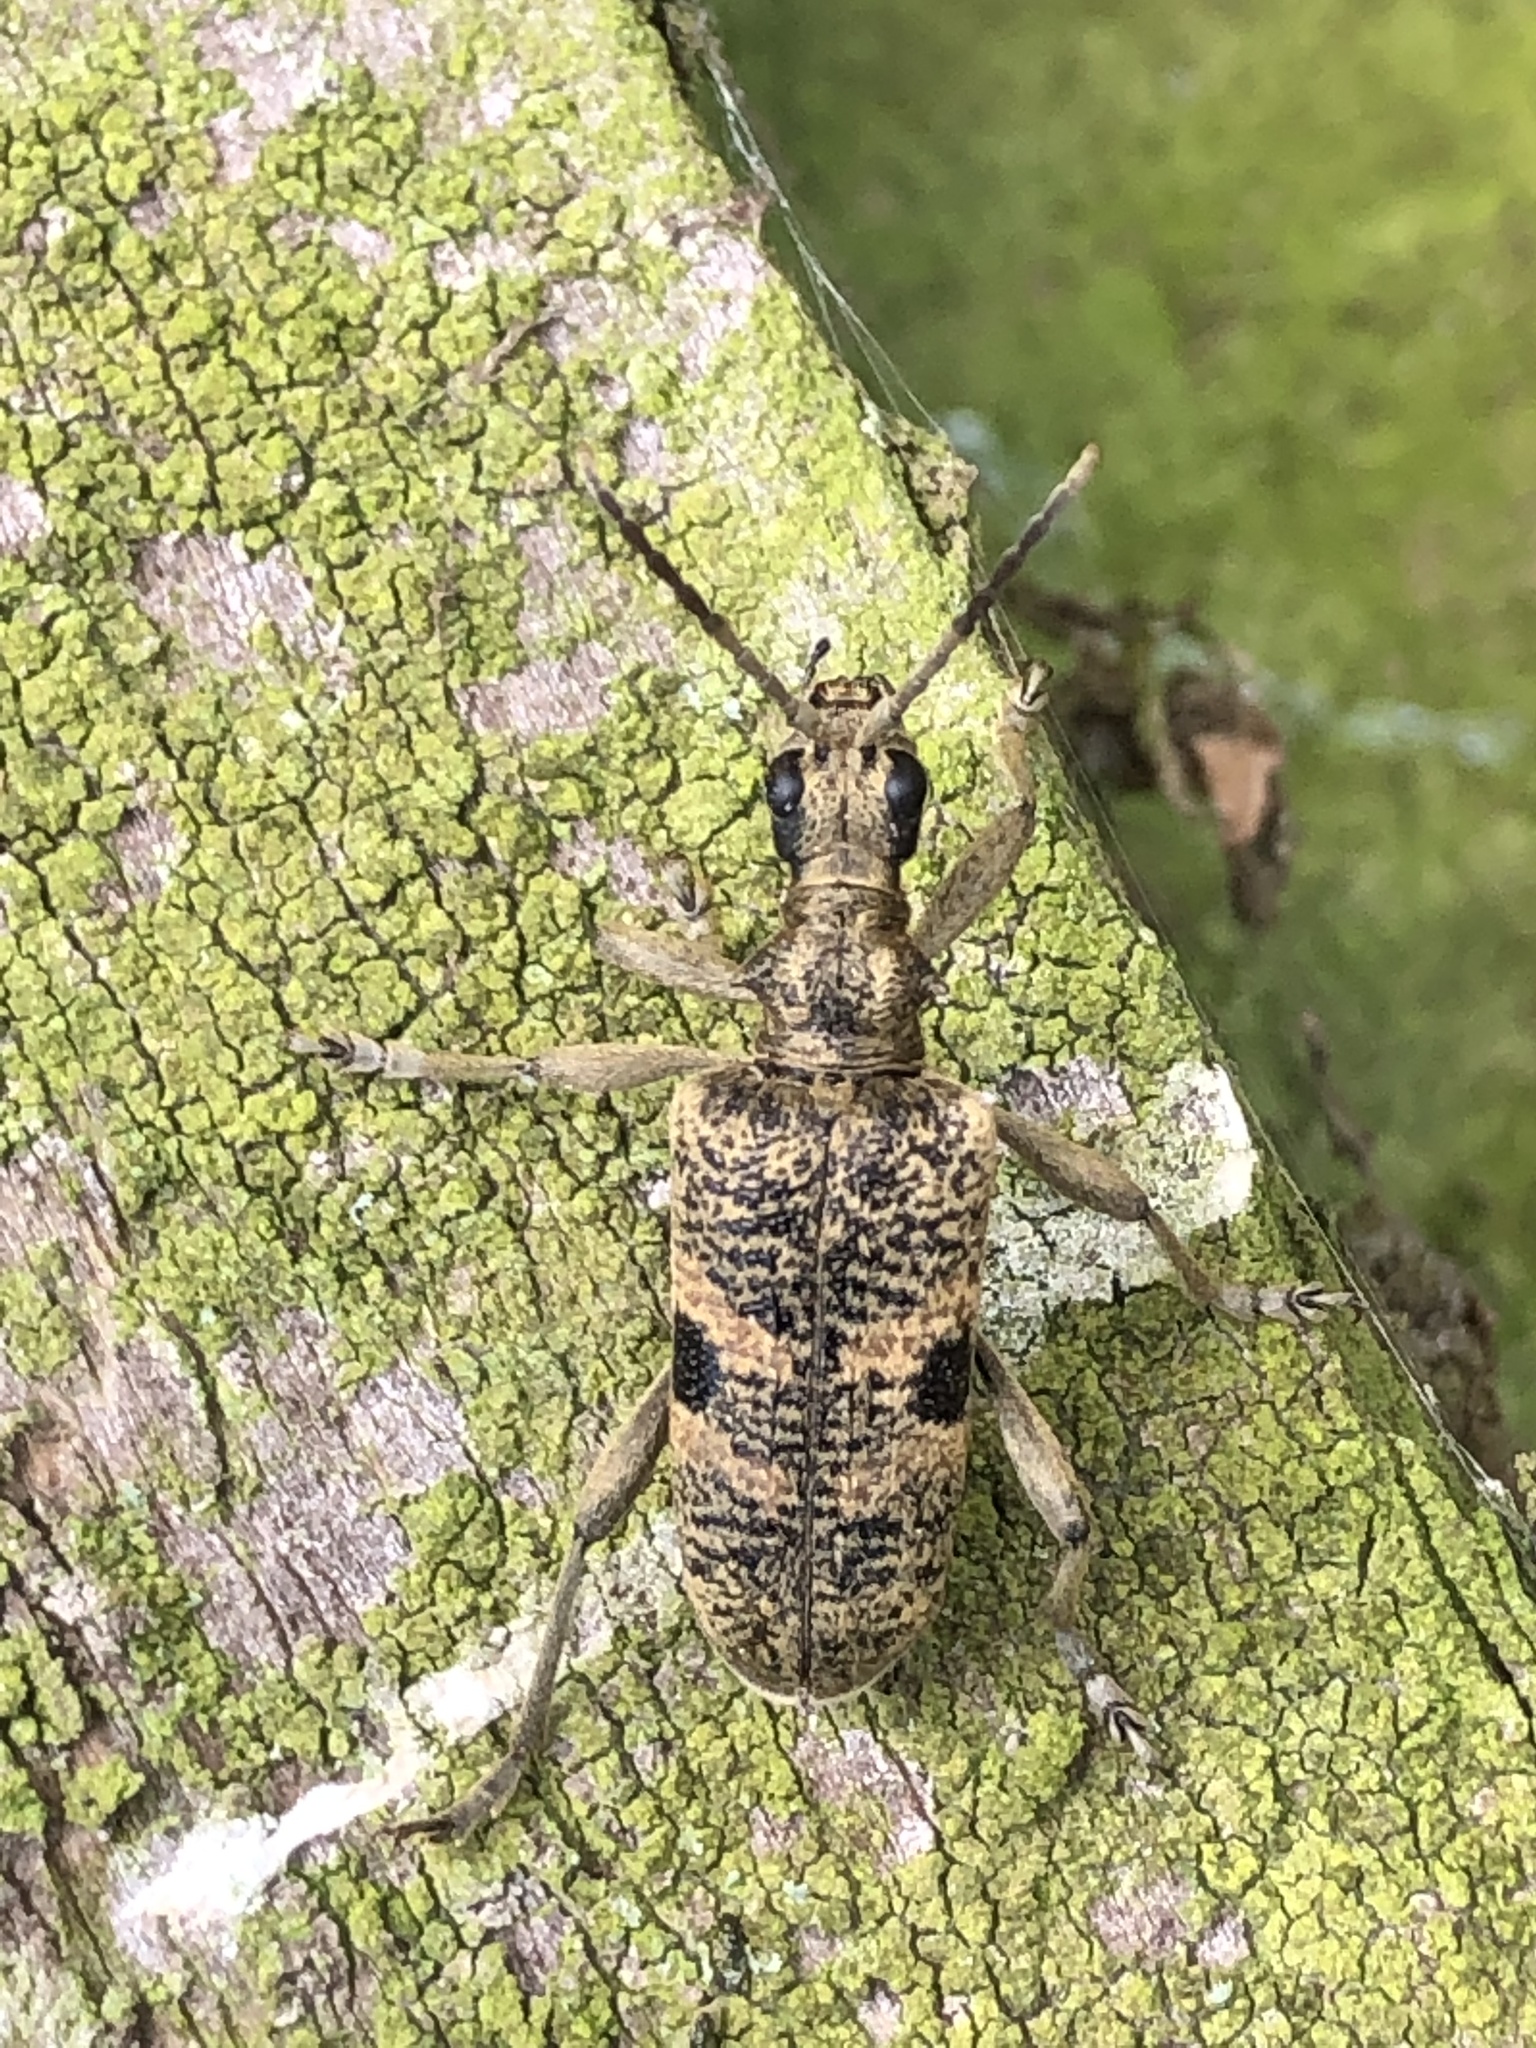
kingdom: Animalia
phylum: Arthropoda
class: Insecta
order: Coleoptera
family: Cerambycidae
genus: Rhagium
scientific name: Rhagium mordax
